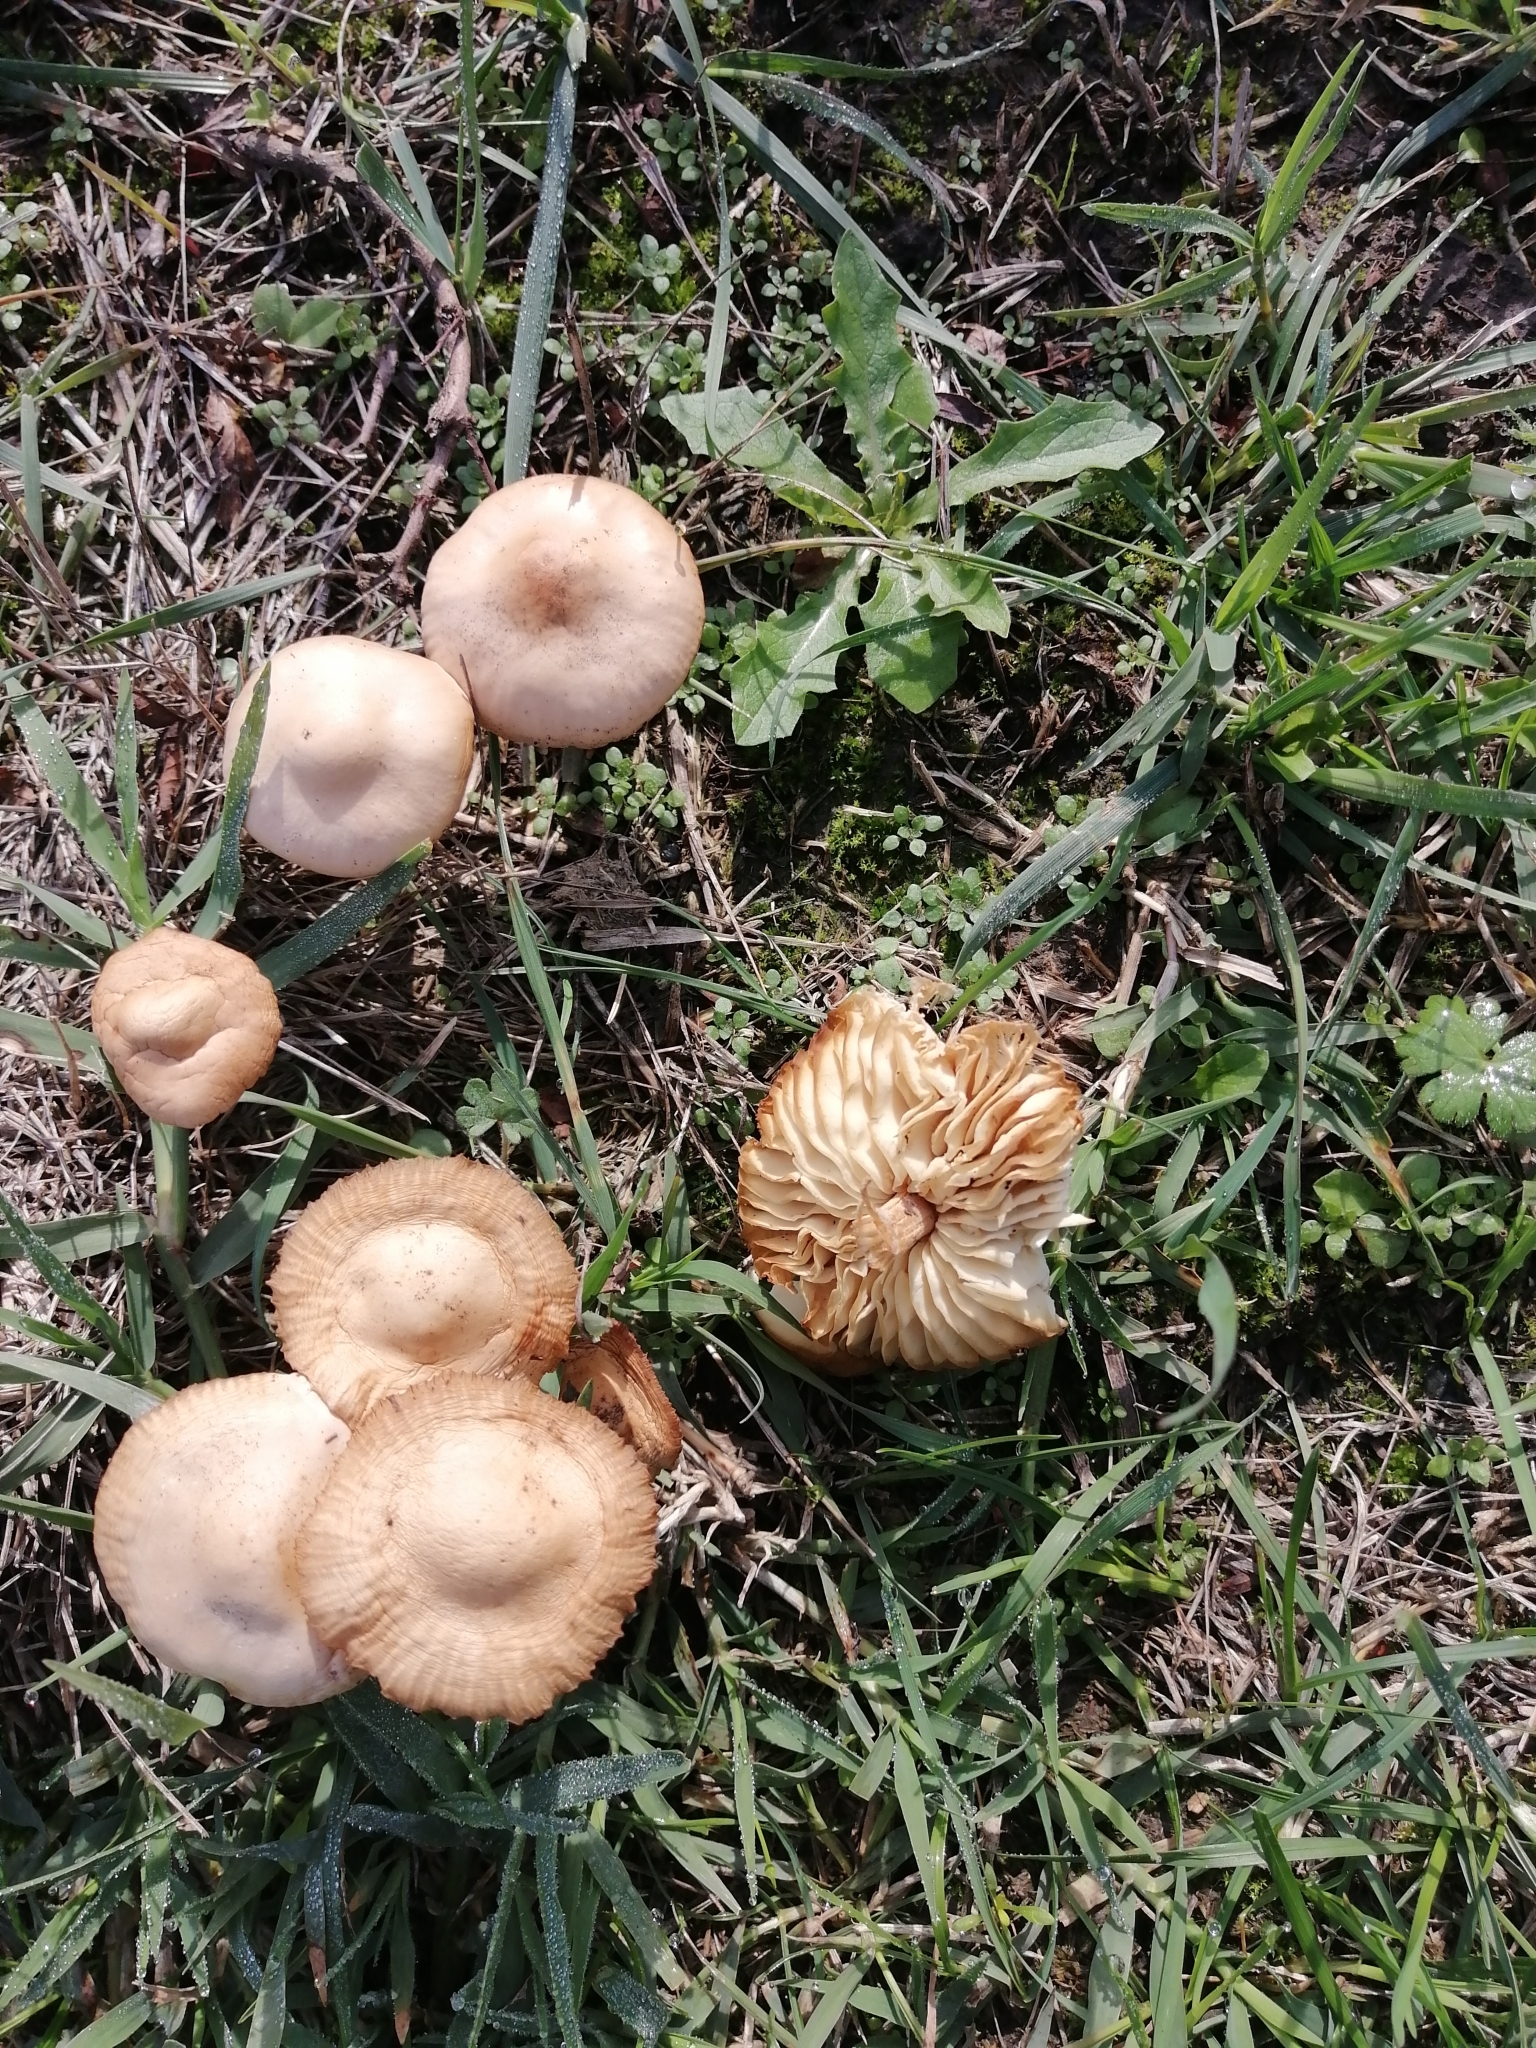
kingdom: Fungi
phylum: Basidiomycota
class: Agaricomycetes
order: Agaricales
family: Marasmiaceae
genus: Marasmius
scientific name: Marasmius oreades
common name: Fairy ring champignon
